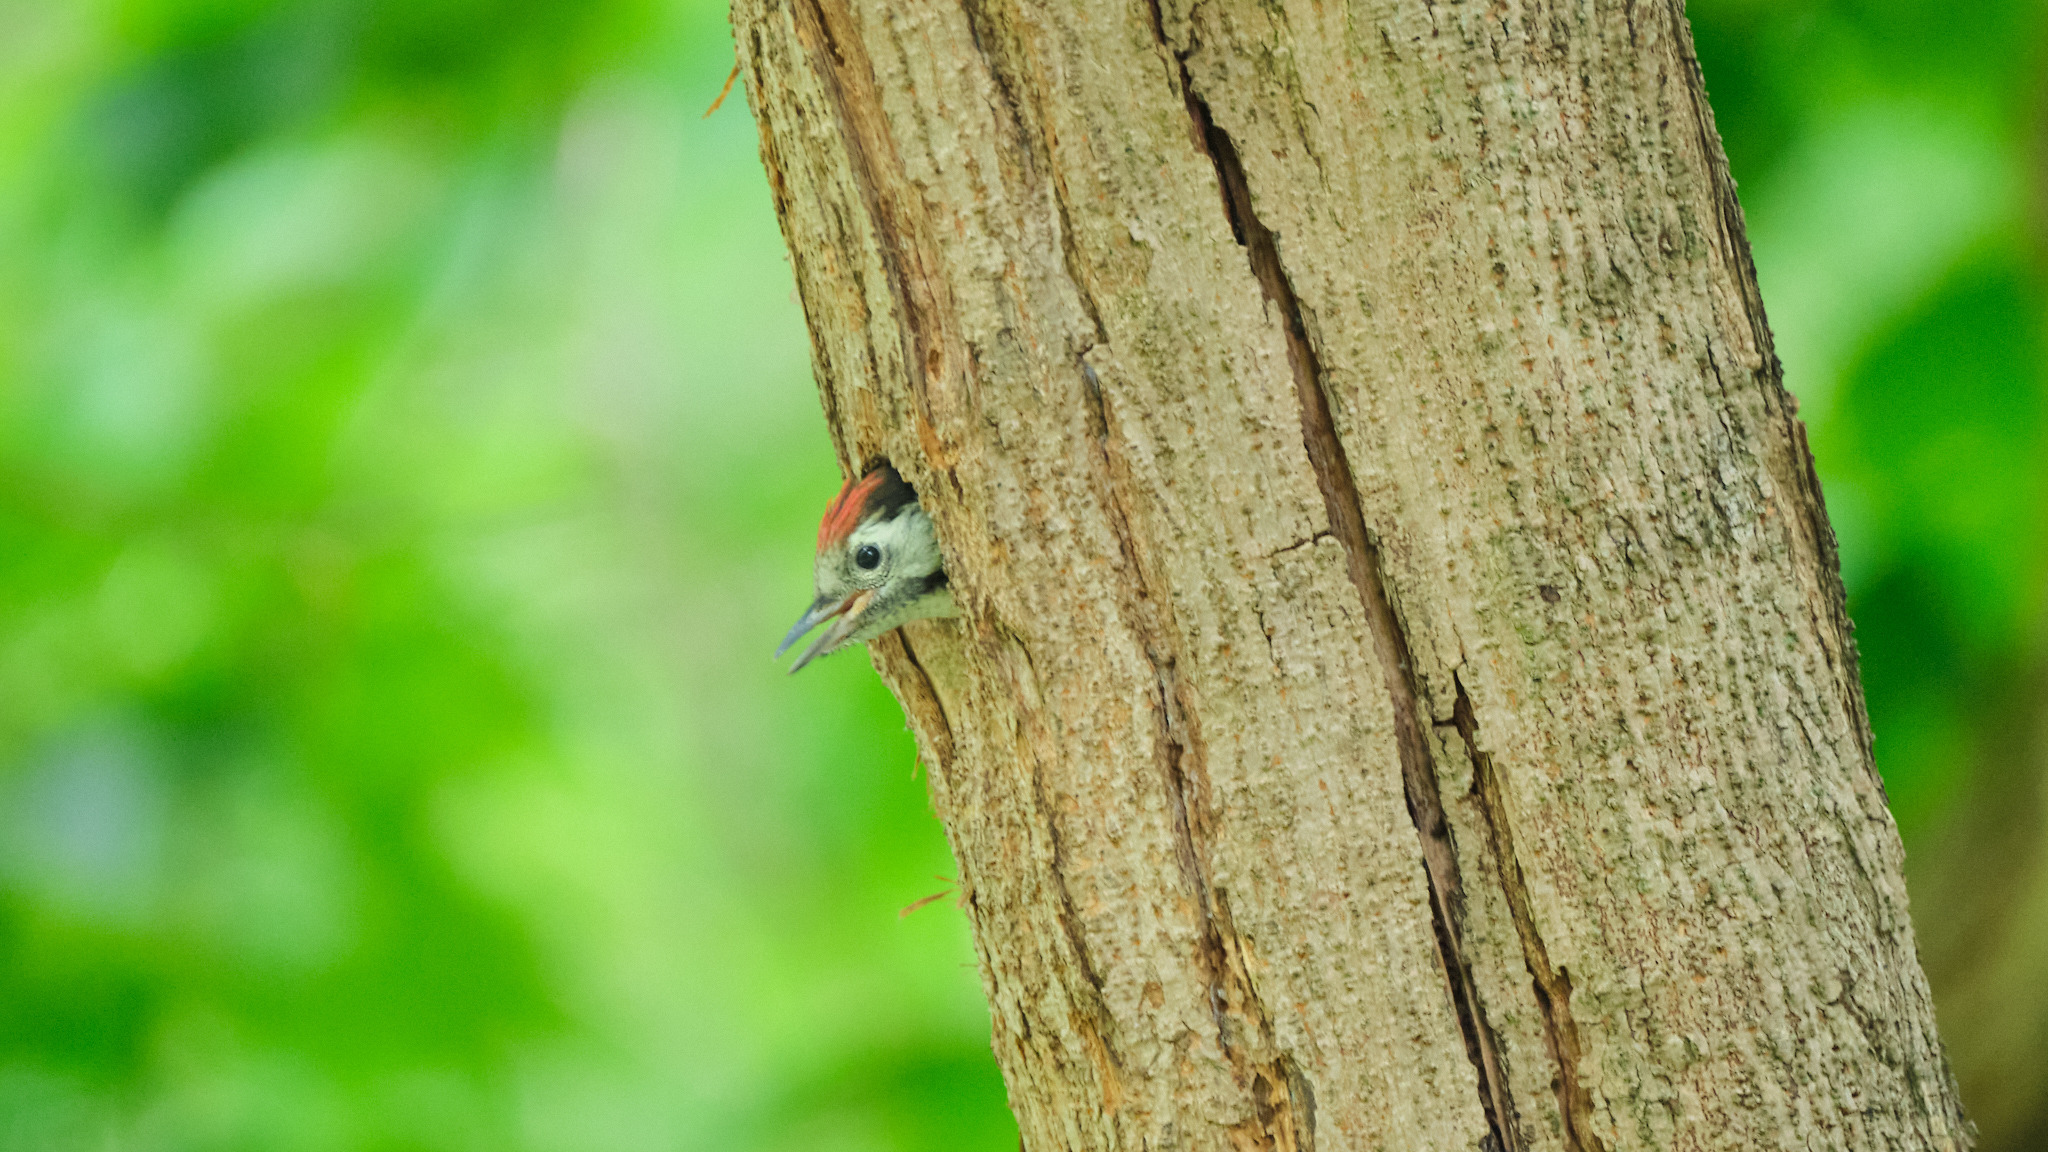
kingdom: Animalia
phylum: Chordata
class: Aves
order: Piciformes
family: Picidae
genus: Dendrocoptes
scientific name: Dendrocoptes medius
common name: Middle spotted woodpecker
